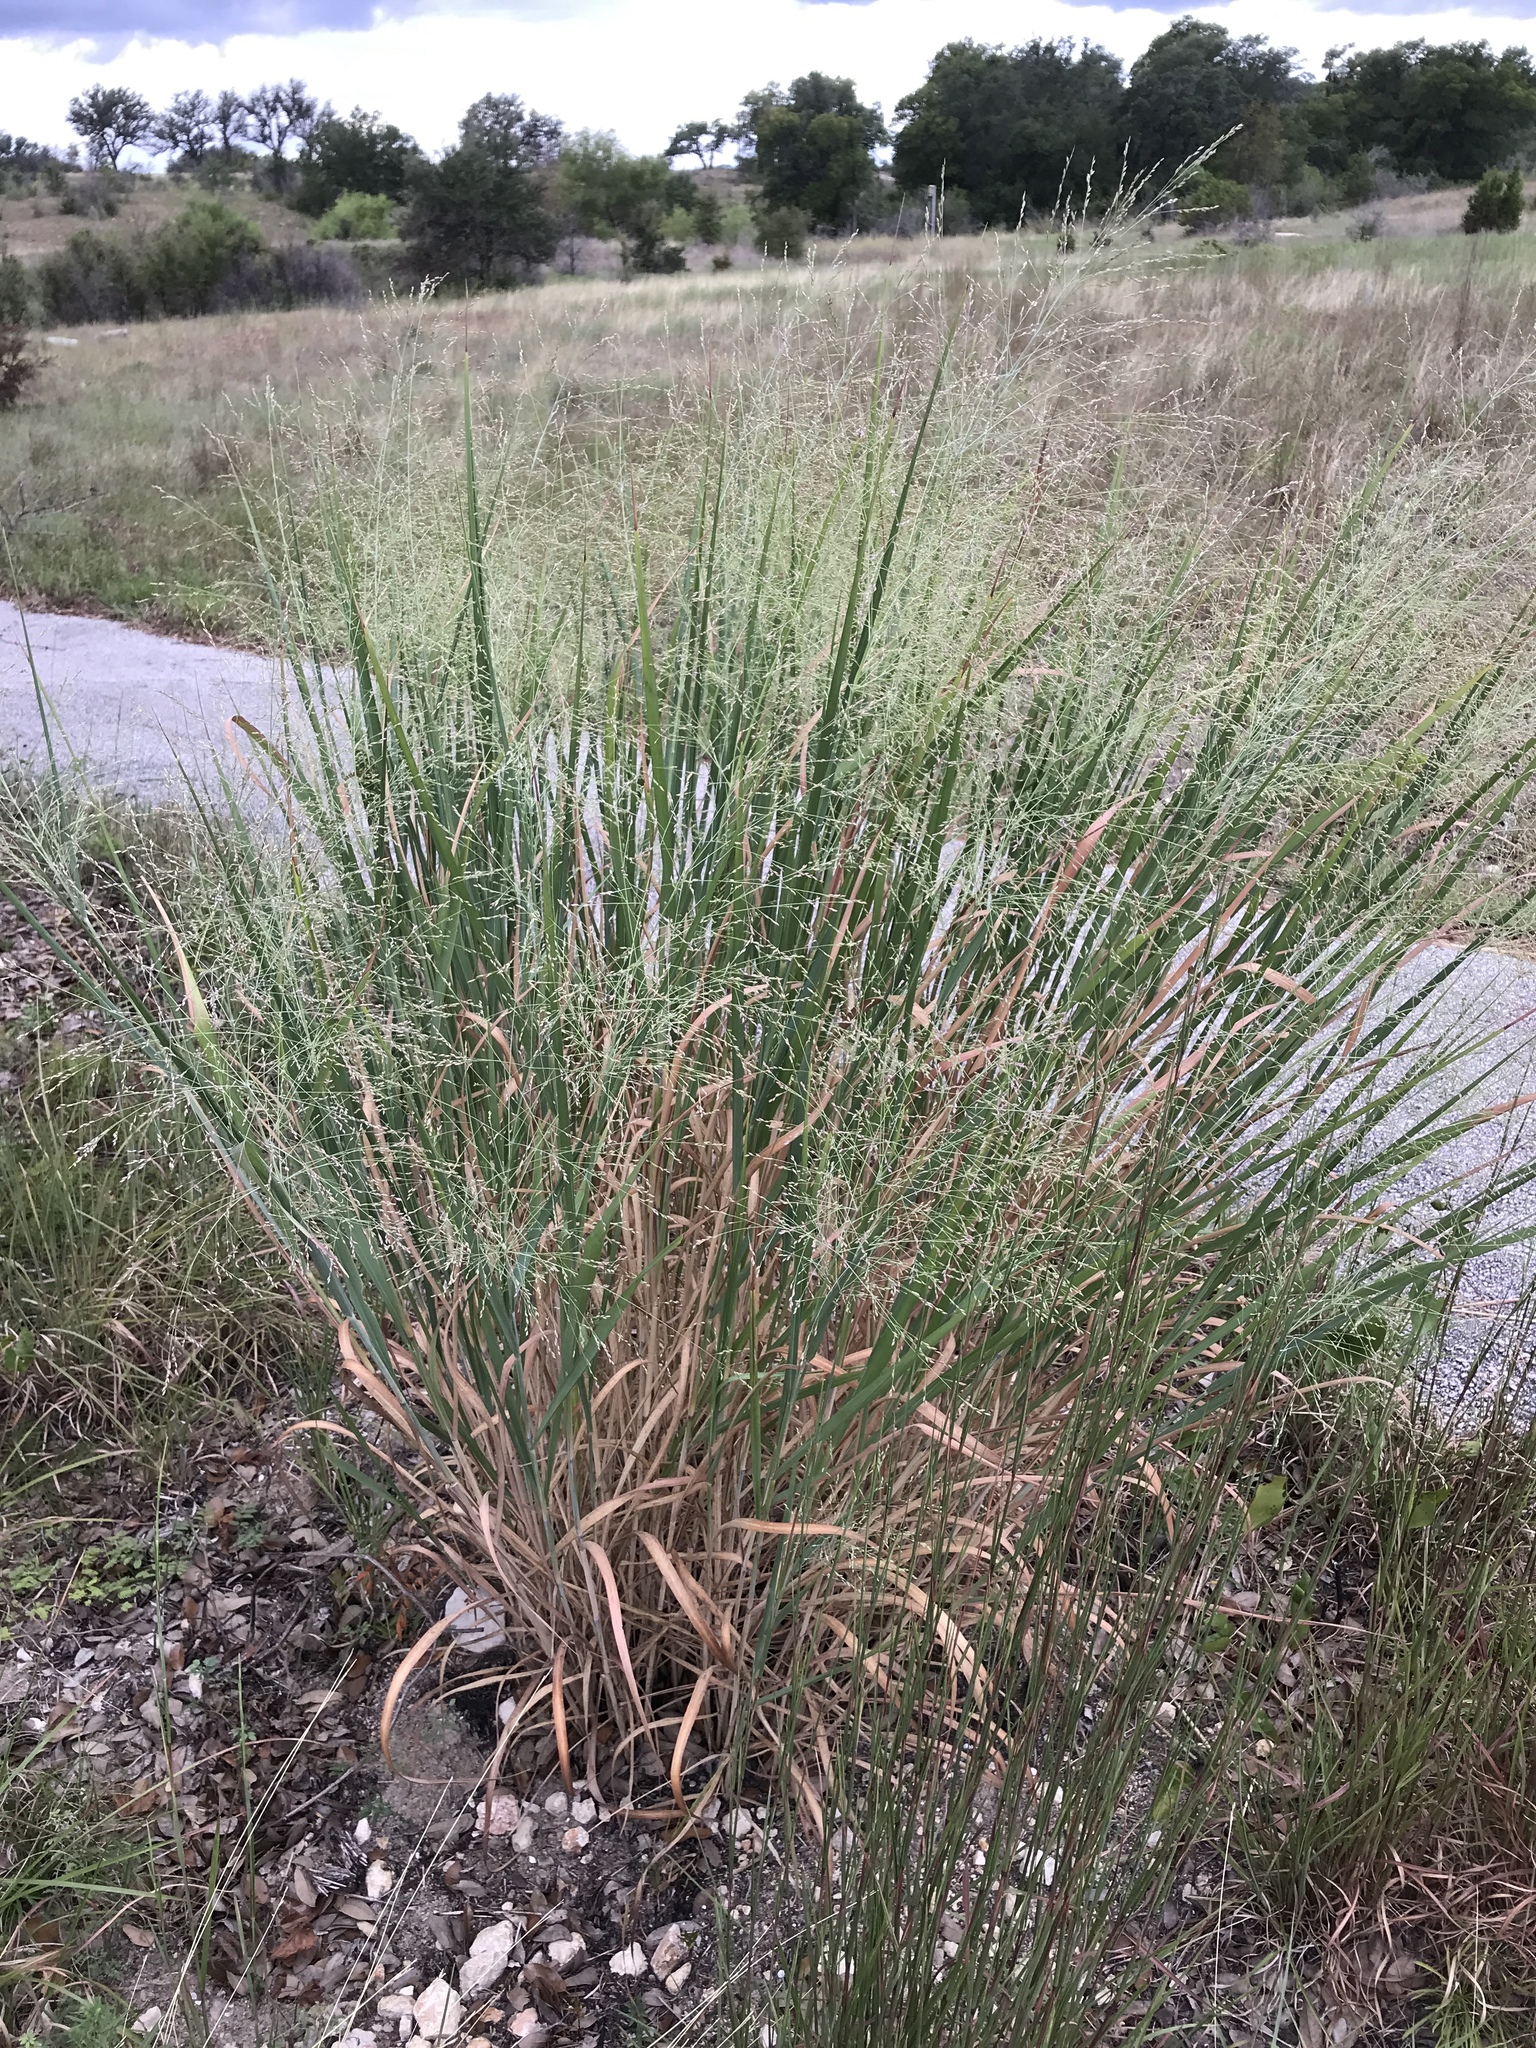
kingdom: Plantae
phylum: Tracheophyta
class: Liliopsida
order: Poales
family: Poaceae
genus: Panicum
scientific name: Panicum virgatum
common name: Switchgrass
